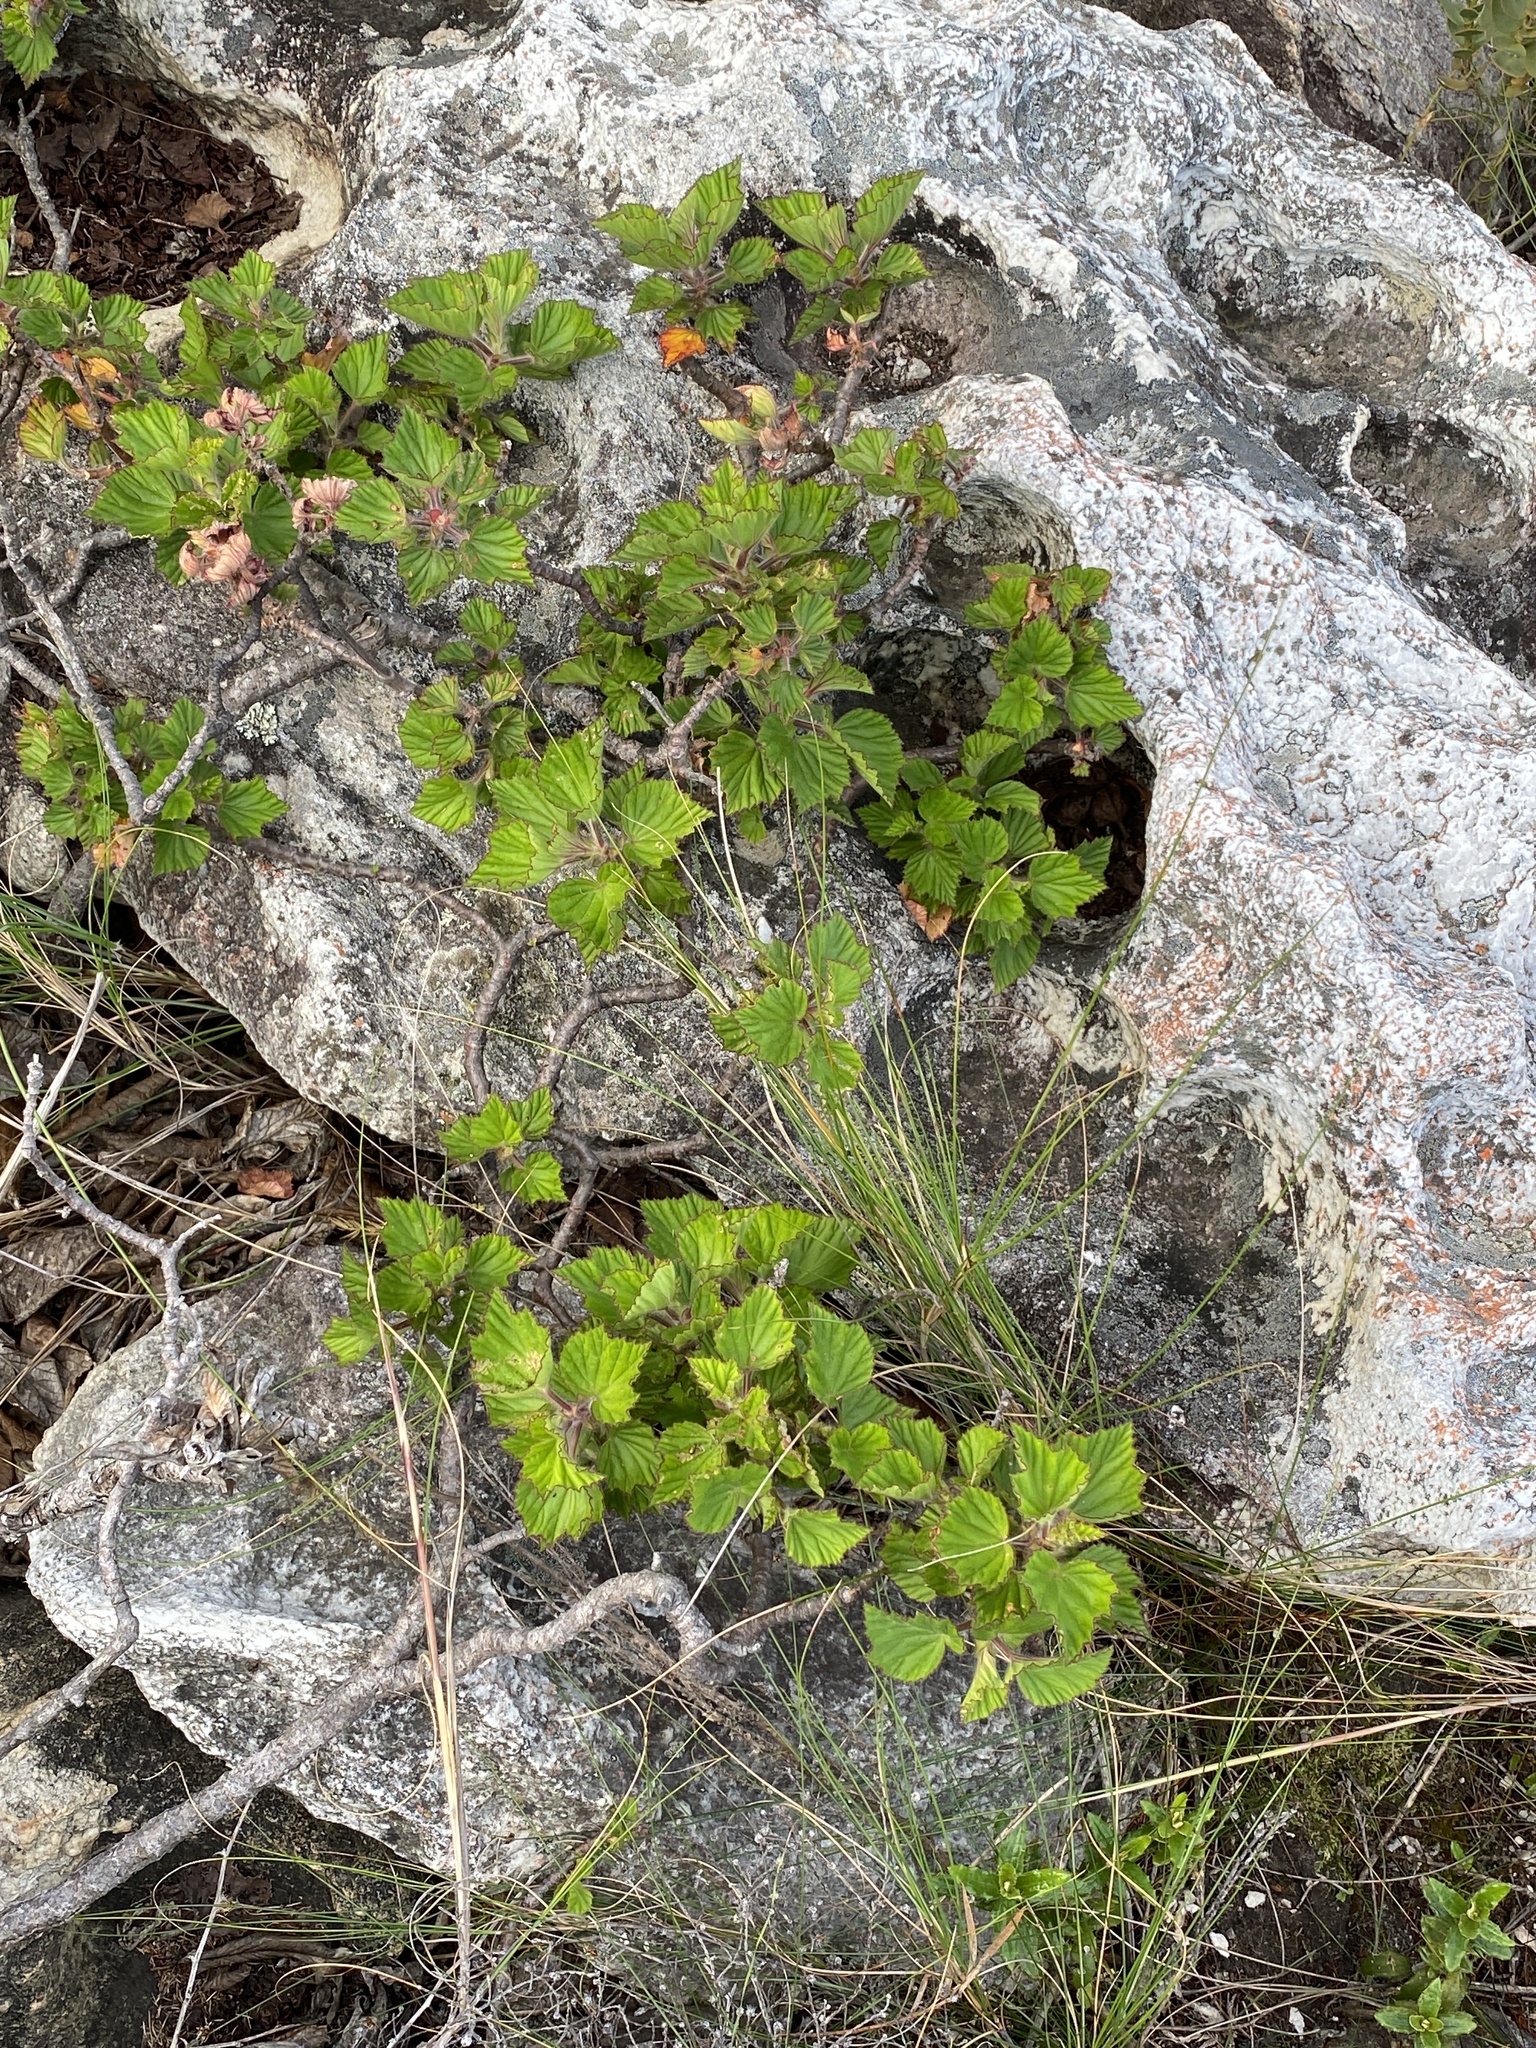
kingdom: Plantae
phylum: Tracheophyta
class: Magnoliopsida
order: Geraniales
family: Geraniaceae
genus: Pelargonium
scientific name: Pelargonium cucullatum
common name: Tree pelargonium
